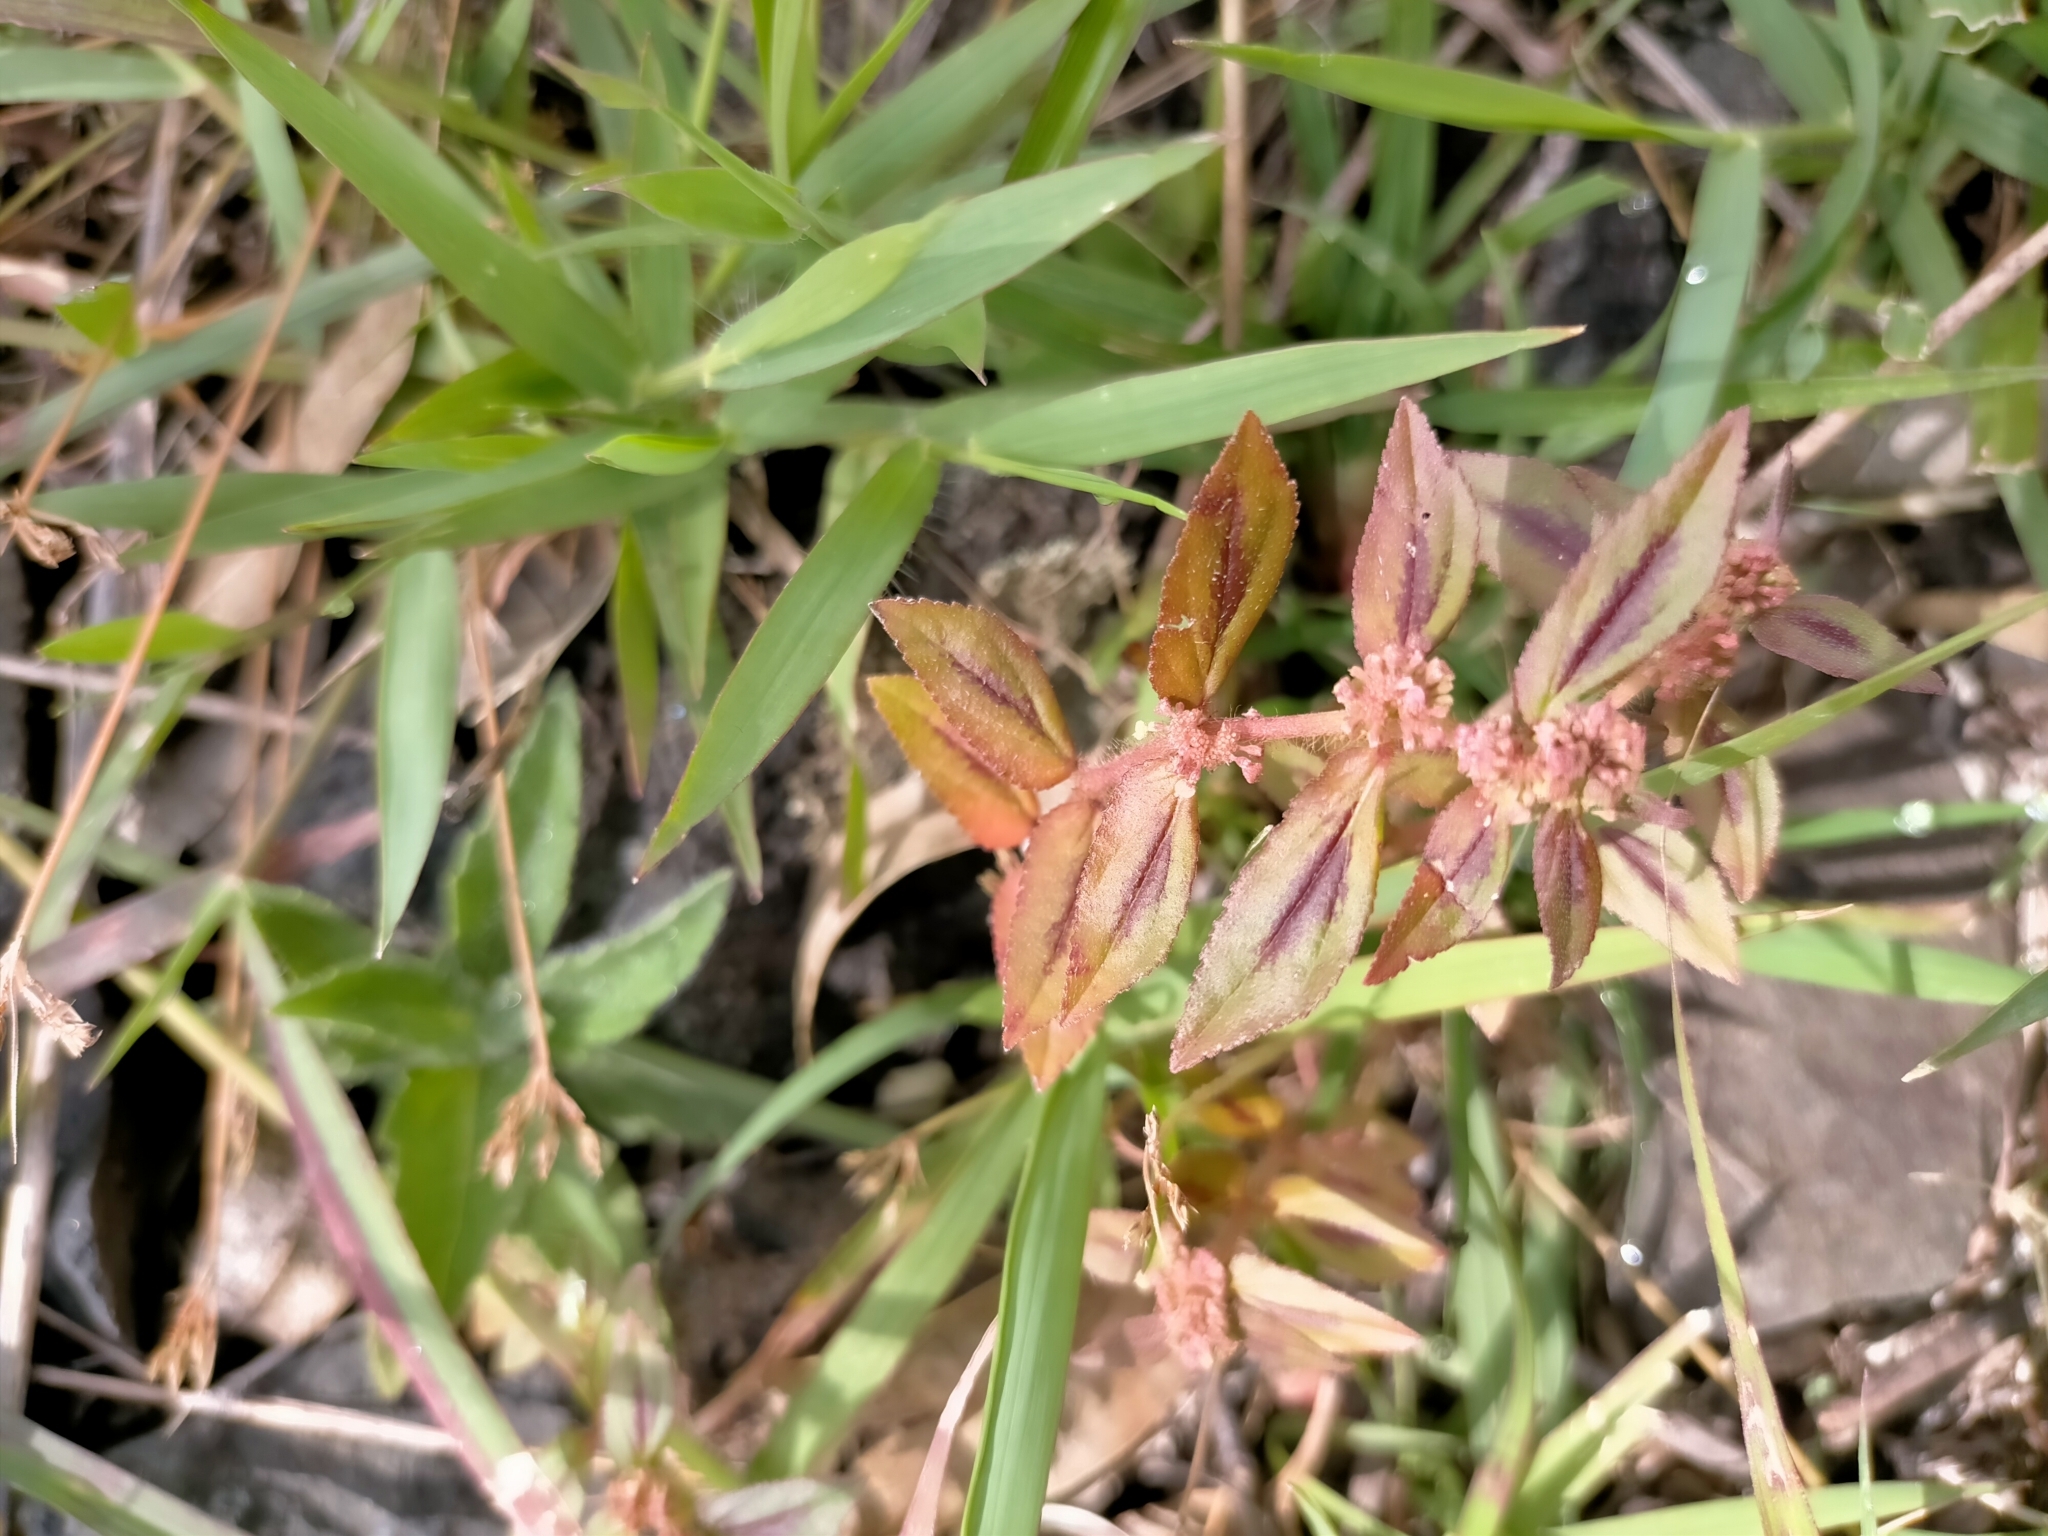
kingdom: Plantae
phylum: Tracheophyta
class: Magnoliopsida
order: Malpighiales
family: Euphorbiaceae
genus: Euphorbia
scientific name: Euphorbia hirta
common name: Pillpod sandmat
